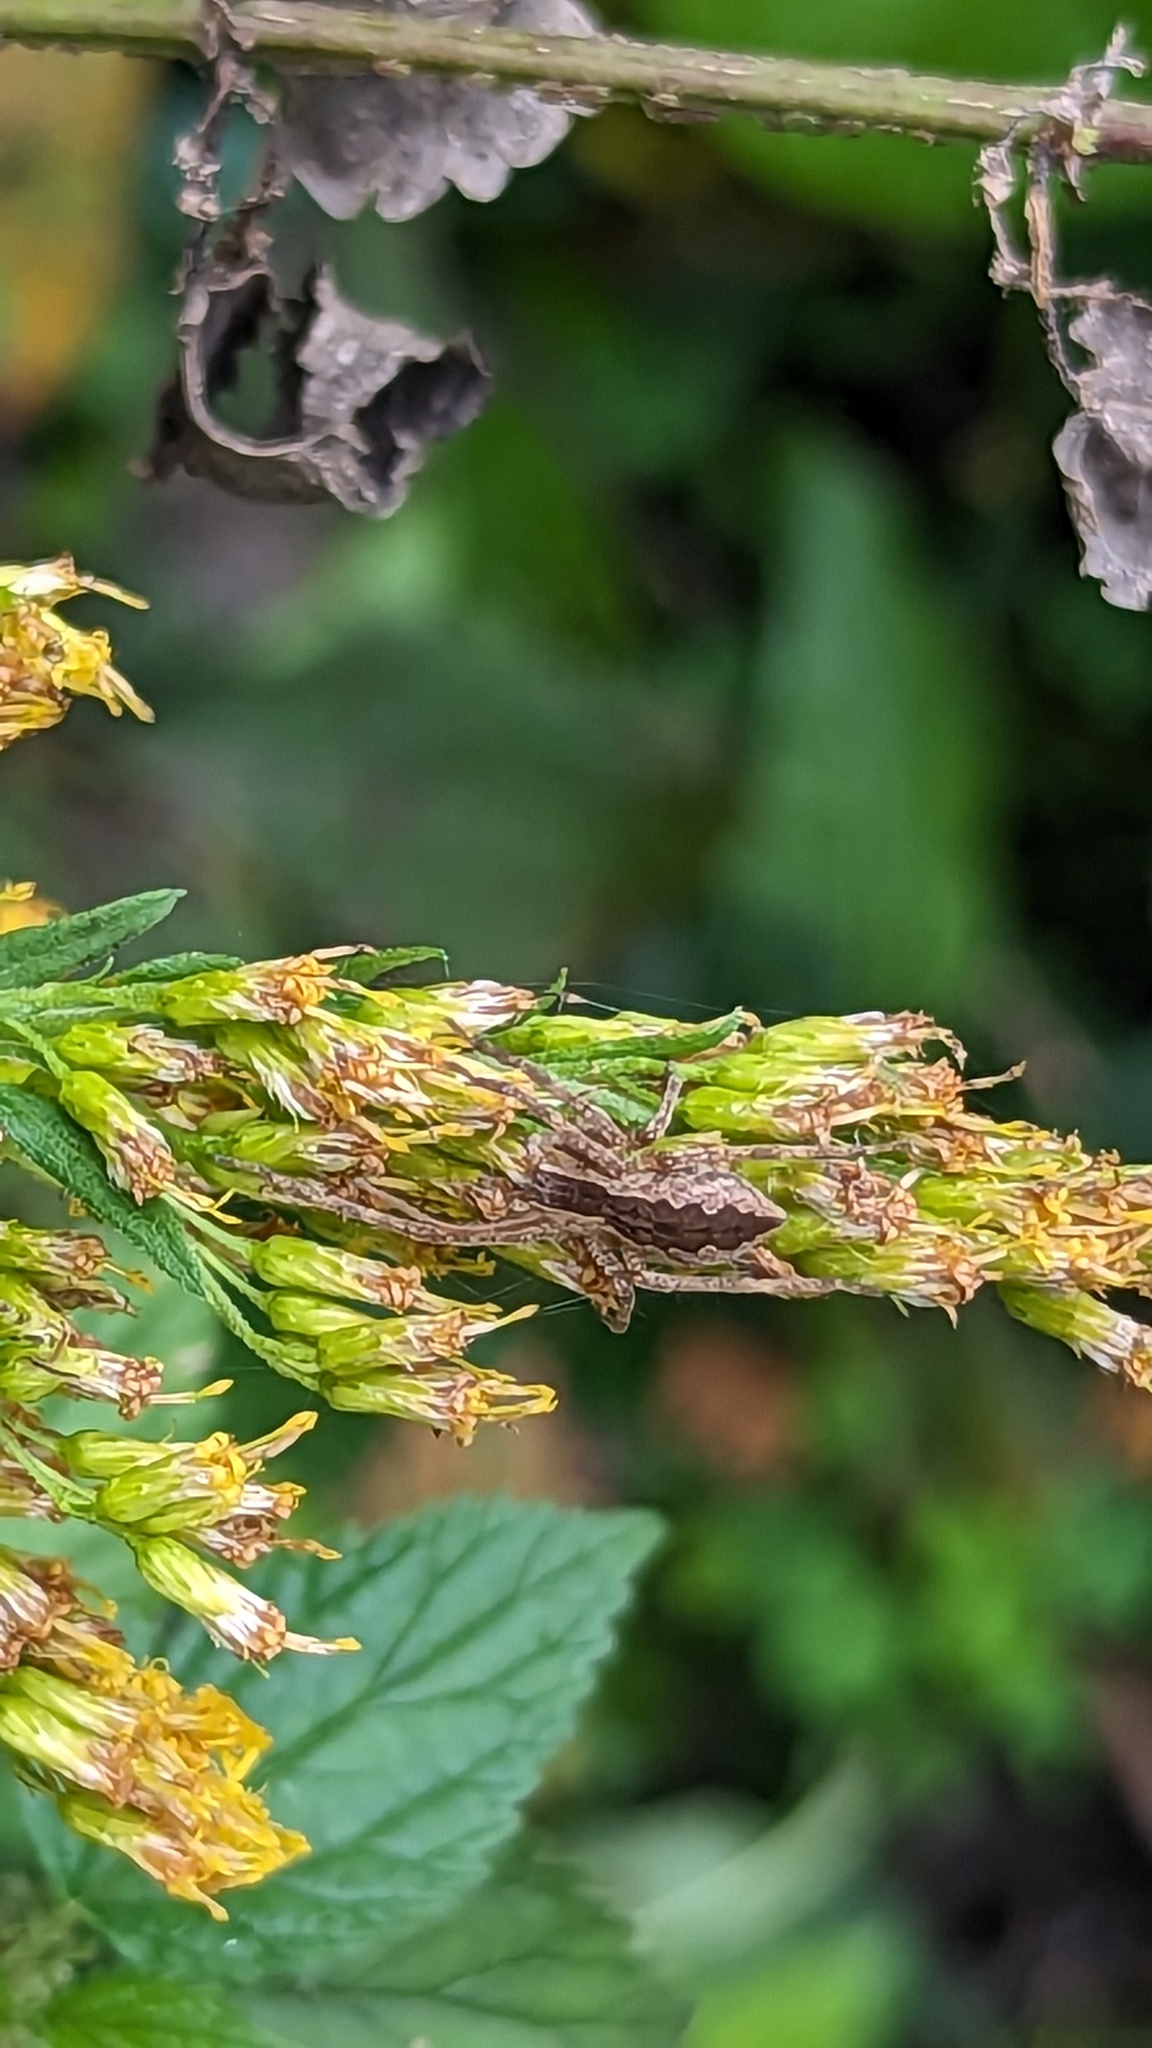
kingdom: Animalia
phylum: Arthropoda
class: Arachnida
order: Araneae
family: Pisauridae
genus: Pisaurina
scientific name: Pisaurina mira
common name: American nursery web spider
